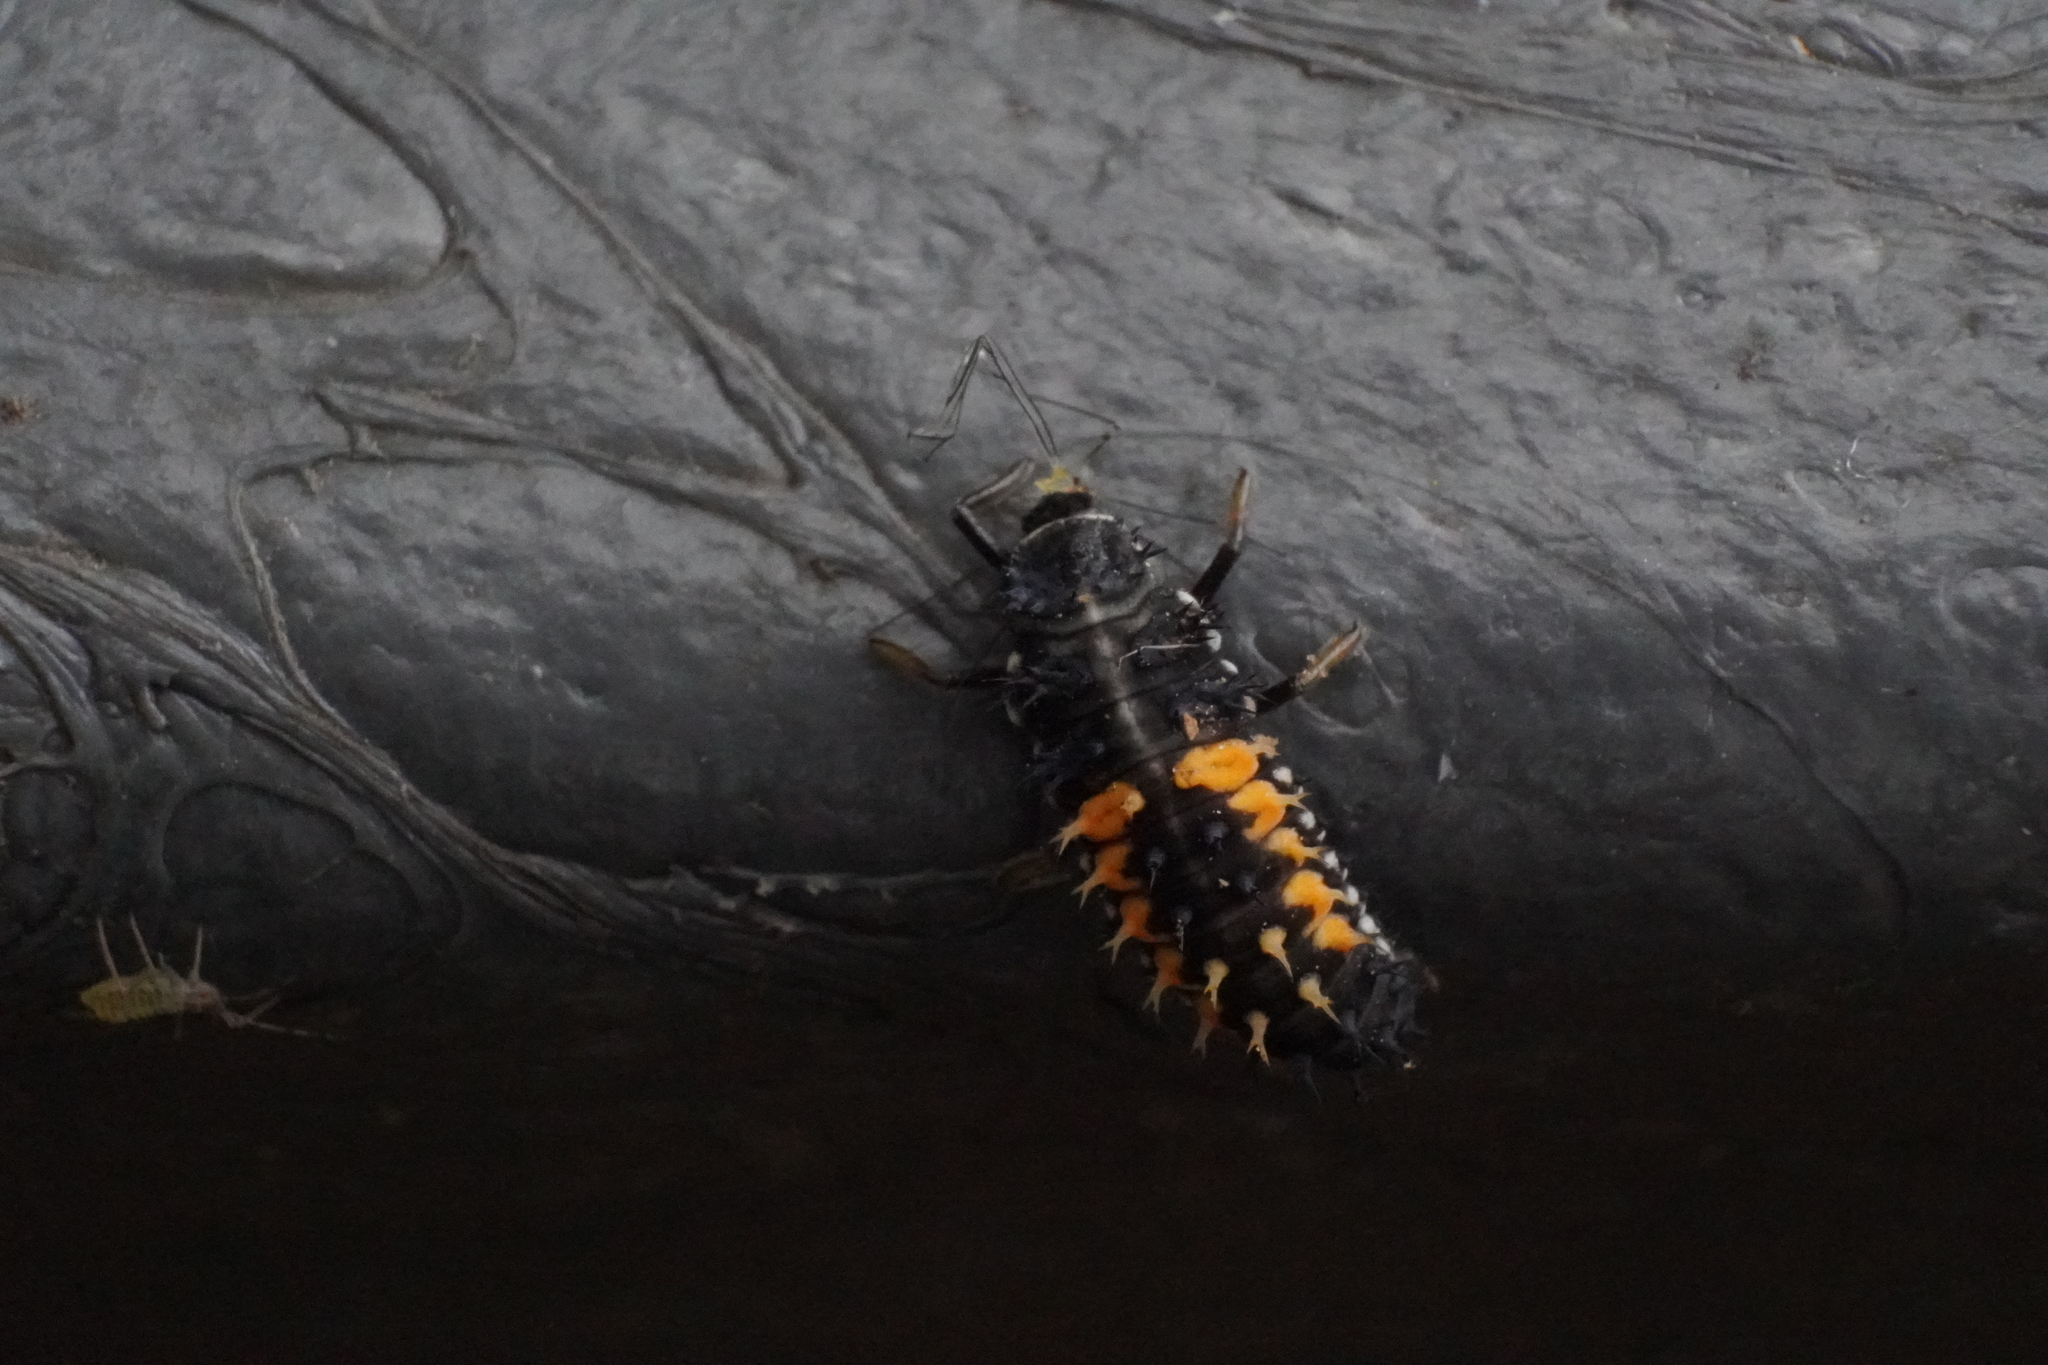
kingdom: Animalia
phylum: Arthropoda
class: Insecta
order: Coleoptera
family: Coccinellidae
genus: Harmonia
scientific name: Harmonia axyridis
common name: Harlequin ladybird
